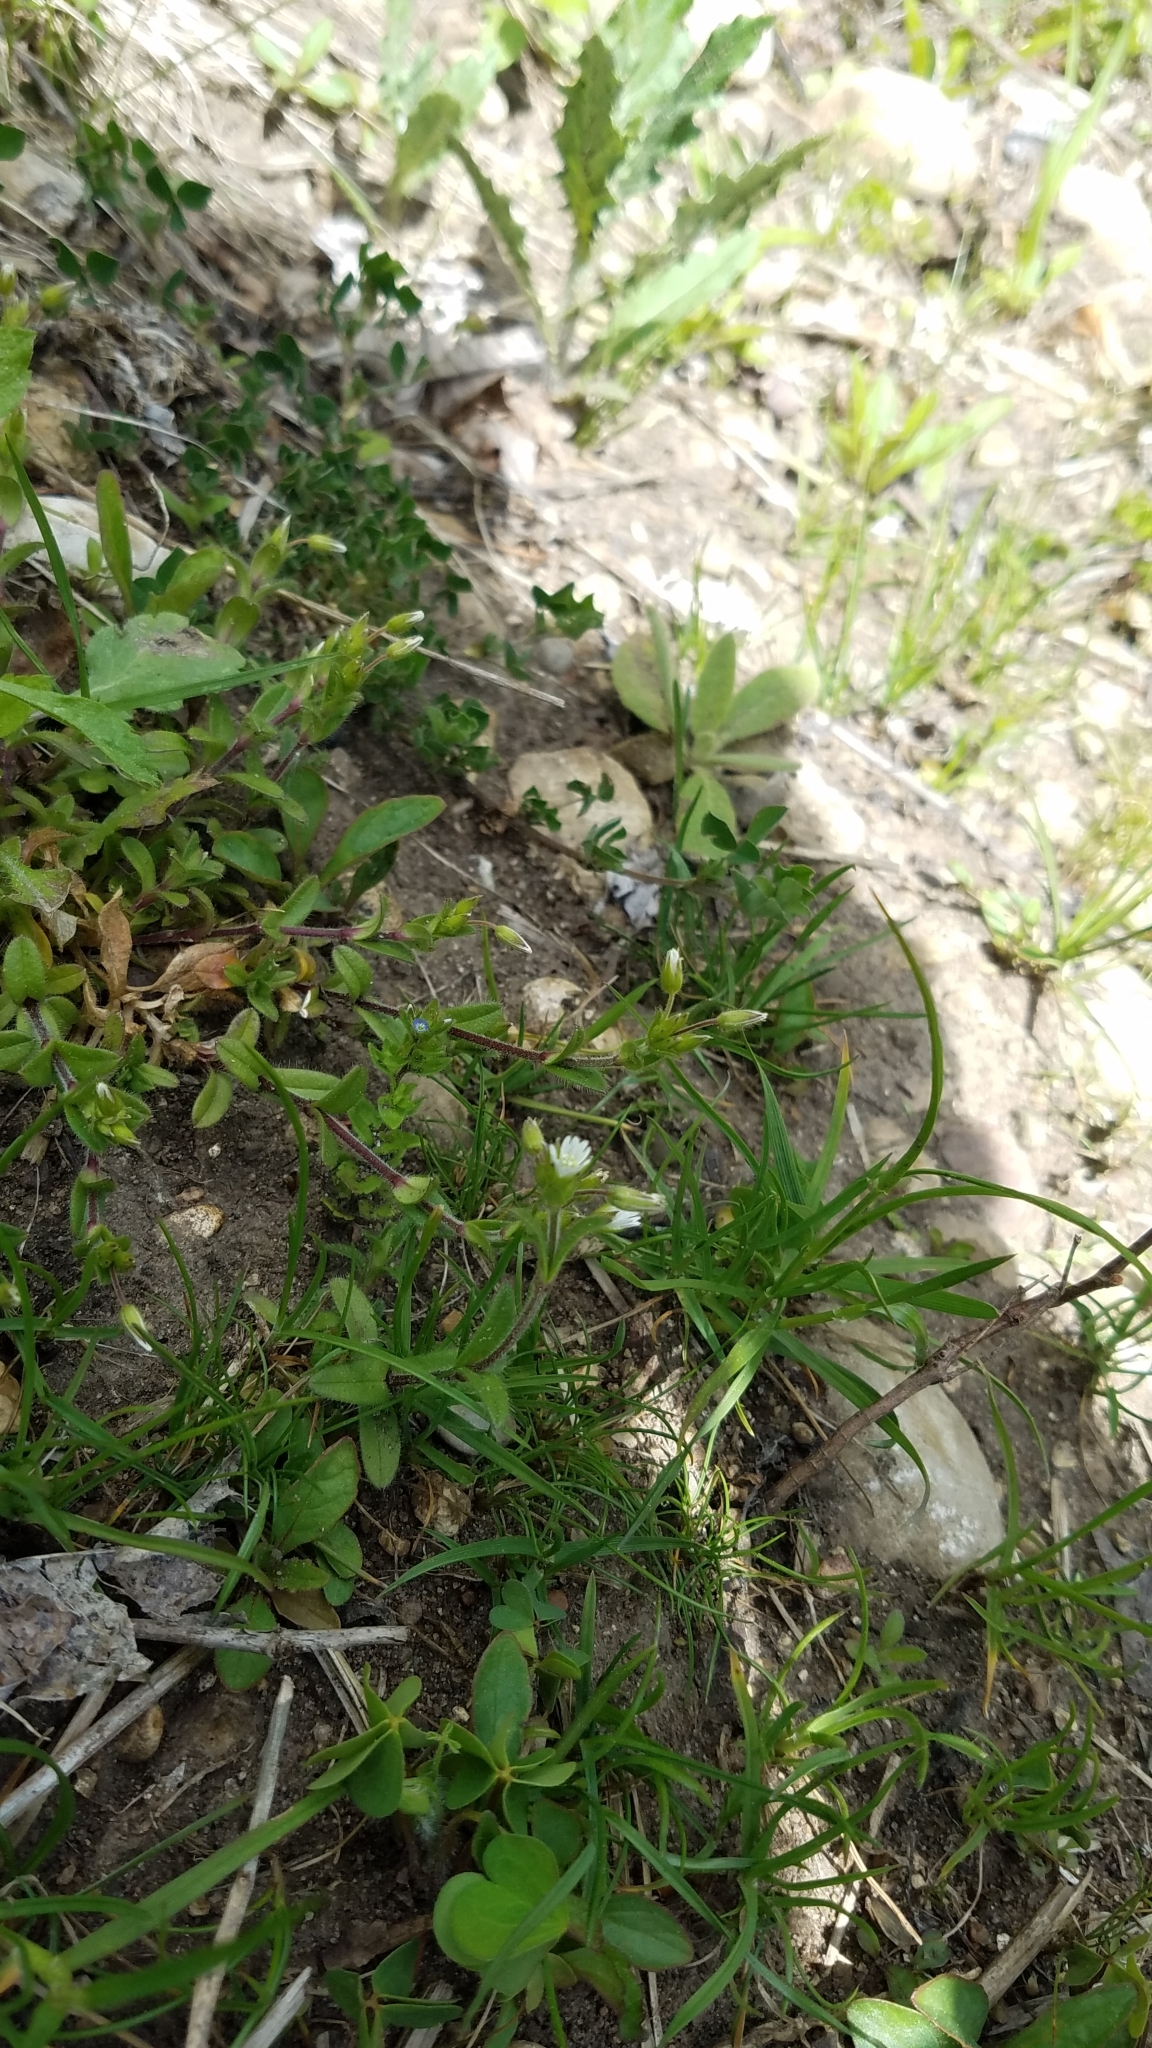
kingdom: Plantae
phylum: Tracheophyta
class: Magnoliopsida
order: Caryophyllales
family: Caryophyllaceae
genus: Cerastium
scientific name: Cerastium fontanum
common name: Common mouse-ear
